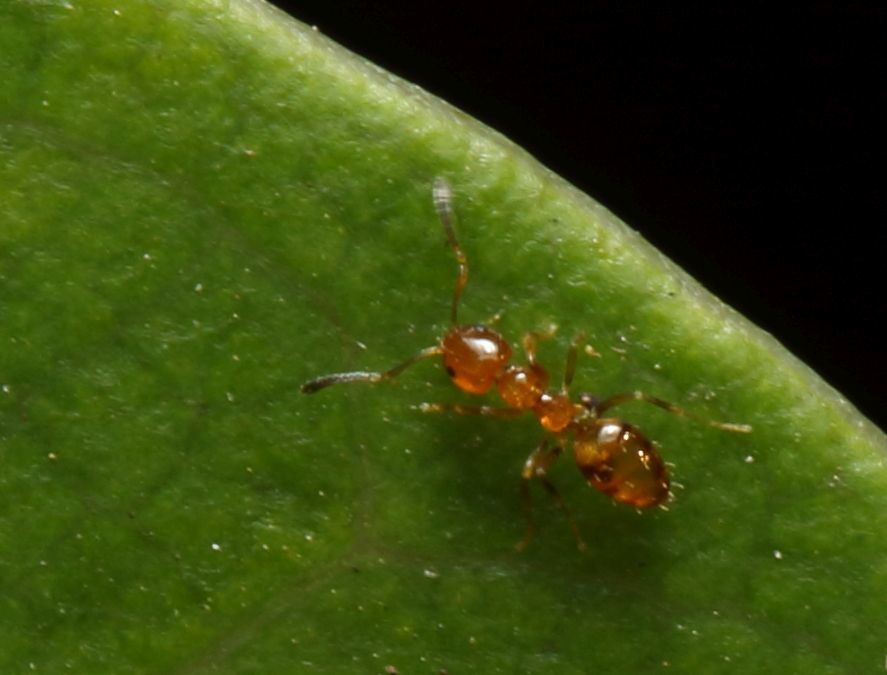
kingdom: Animalia
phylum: Arthropoda
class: Insecta
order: Hymenoptera
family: Formicidae
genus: Plagiolepis
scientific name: Plagiolepis brunni
